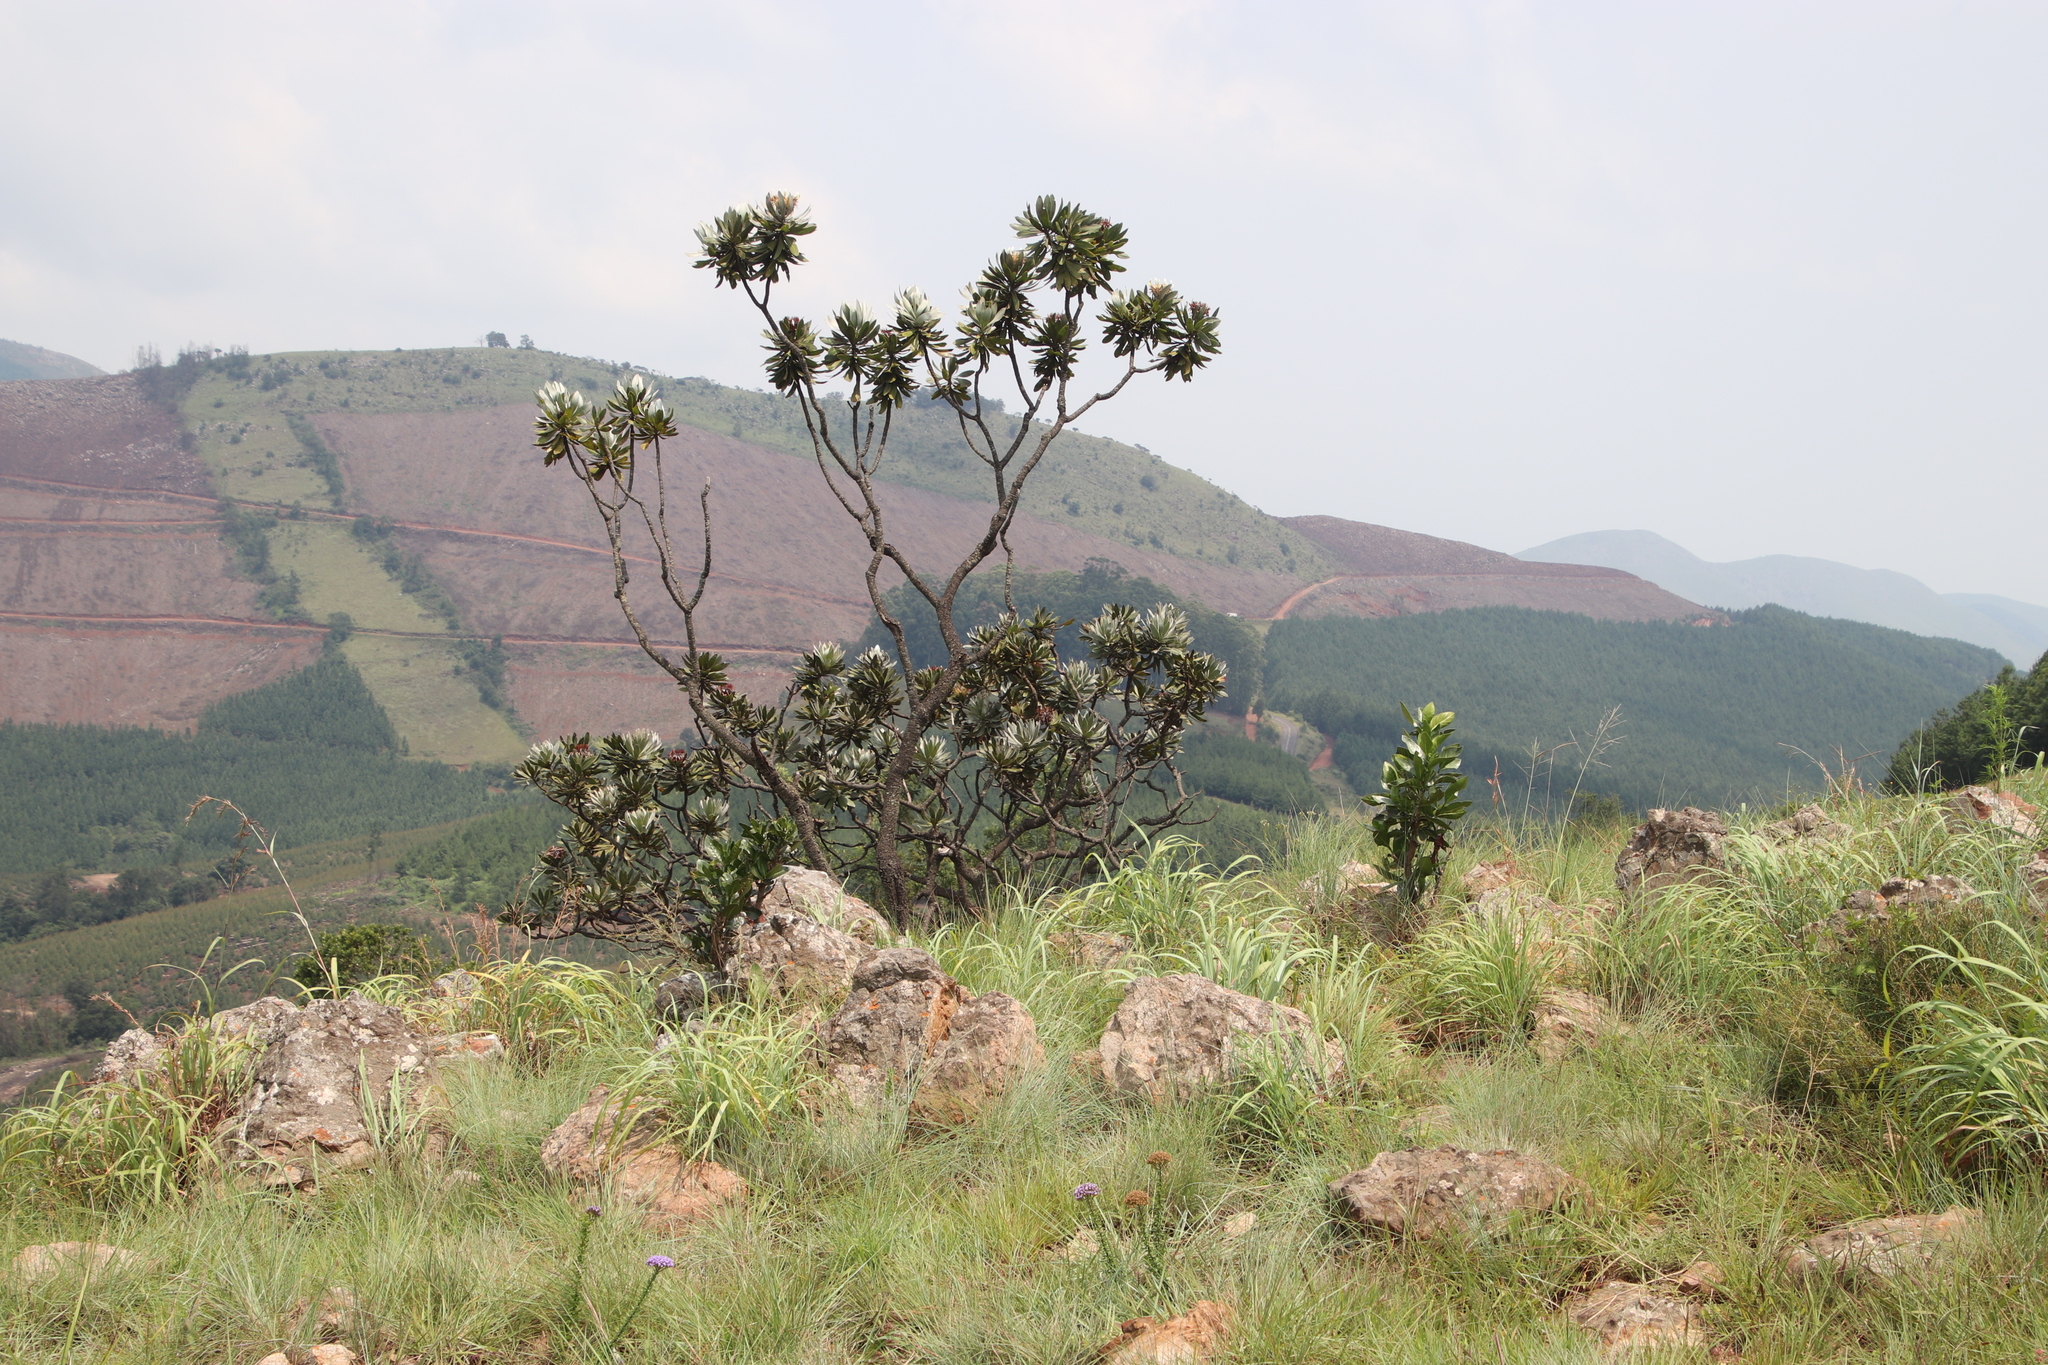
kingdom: Plantae
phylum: Tracheophyta
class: Magnoliopsida
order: Proteales
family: Proteaceae
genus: Protea
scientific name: Protea roupelliae
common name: Silver sugarbush
